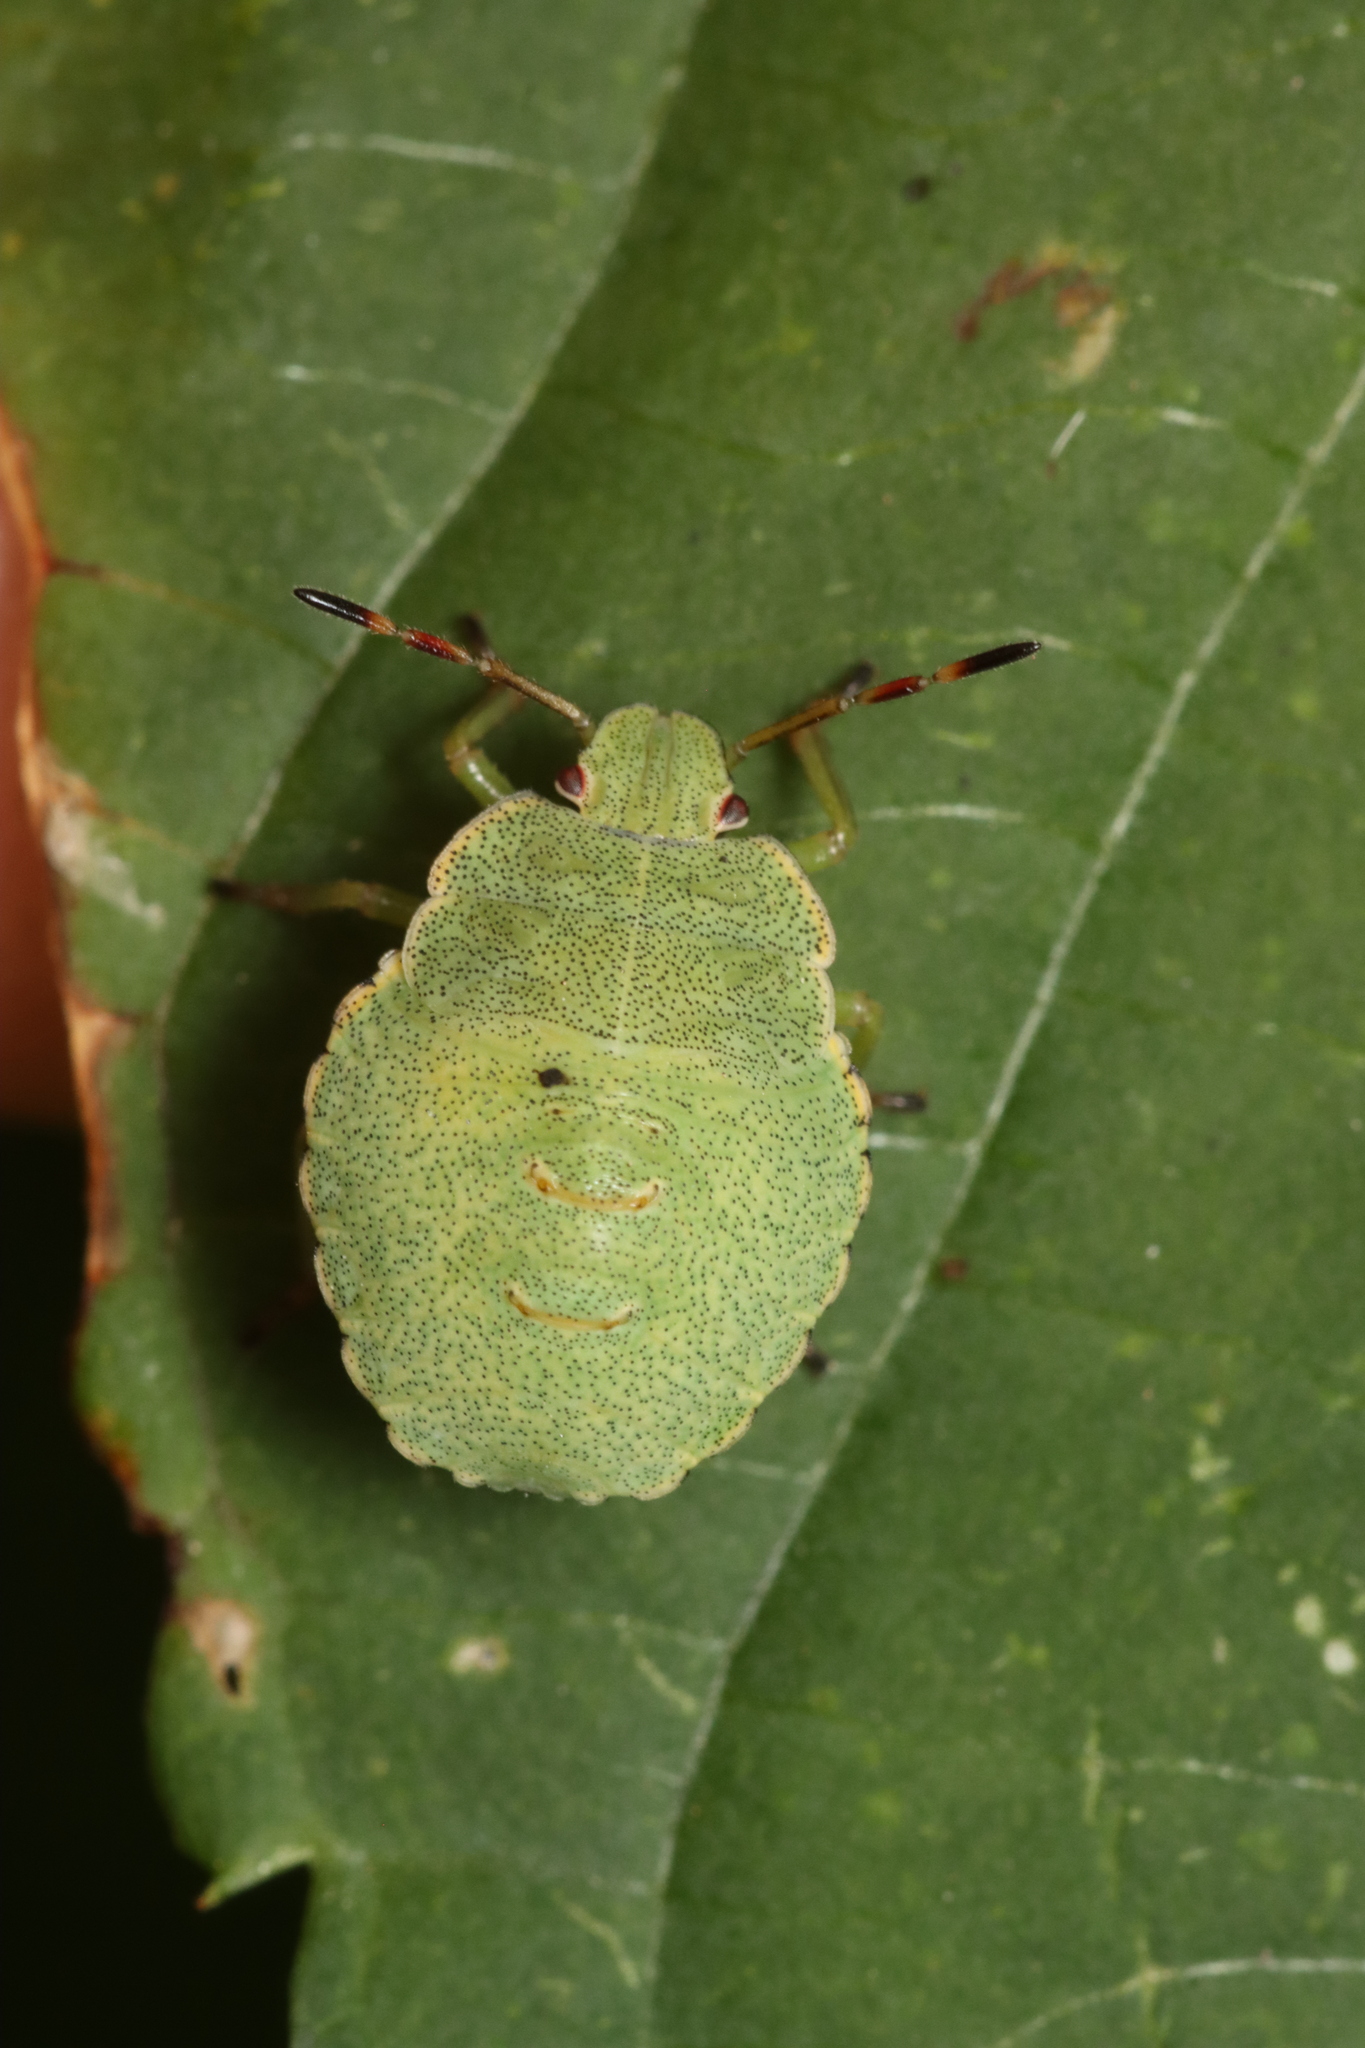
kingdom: Animalia
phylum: Arthropoda
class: Insecta
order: Hemiptera
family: Pentatomidae
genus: Palomena
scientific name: Palomena prasina
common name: Green shieldbug
